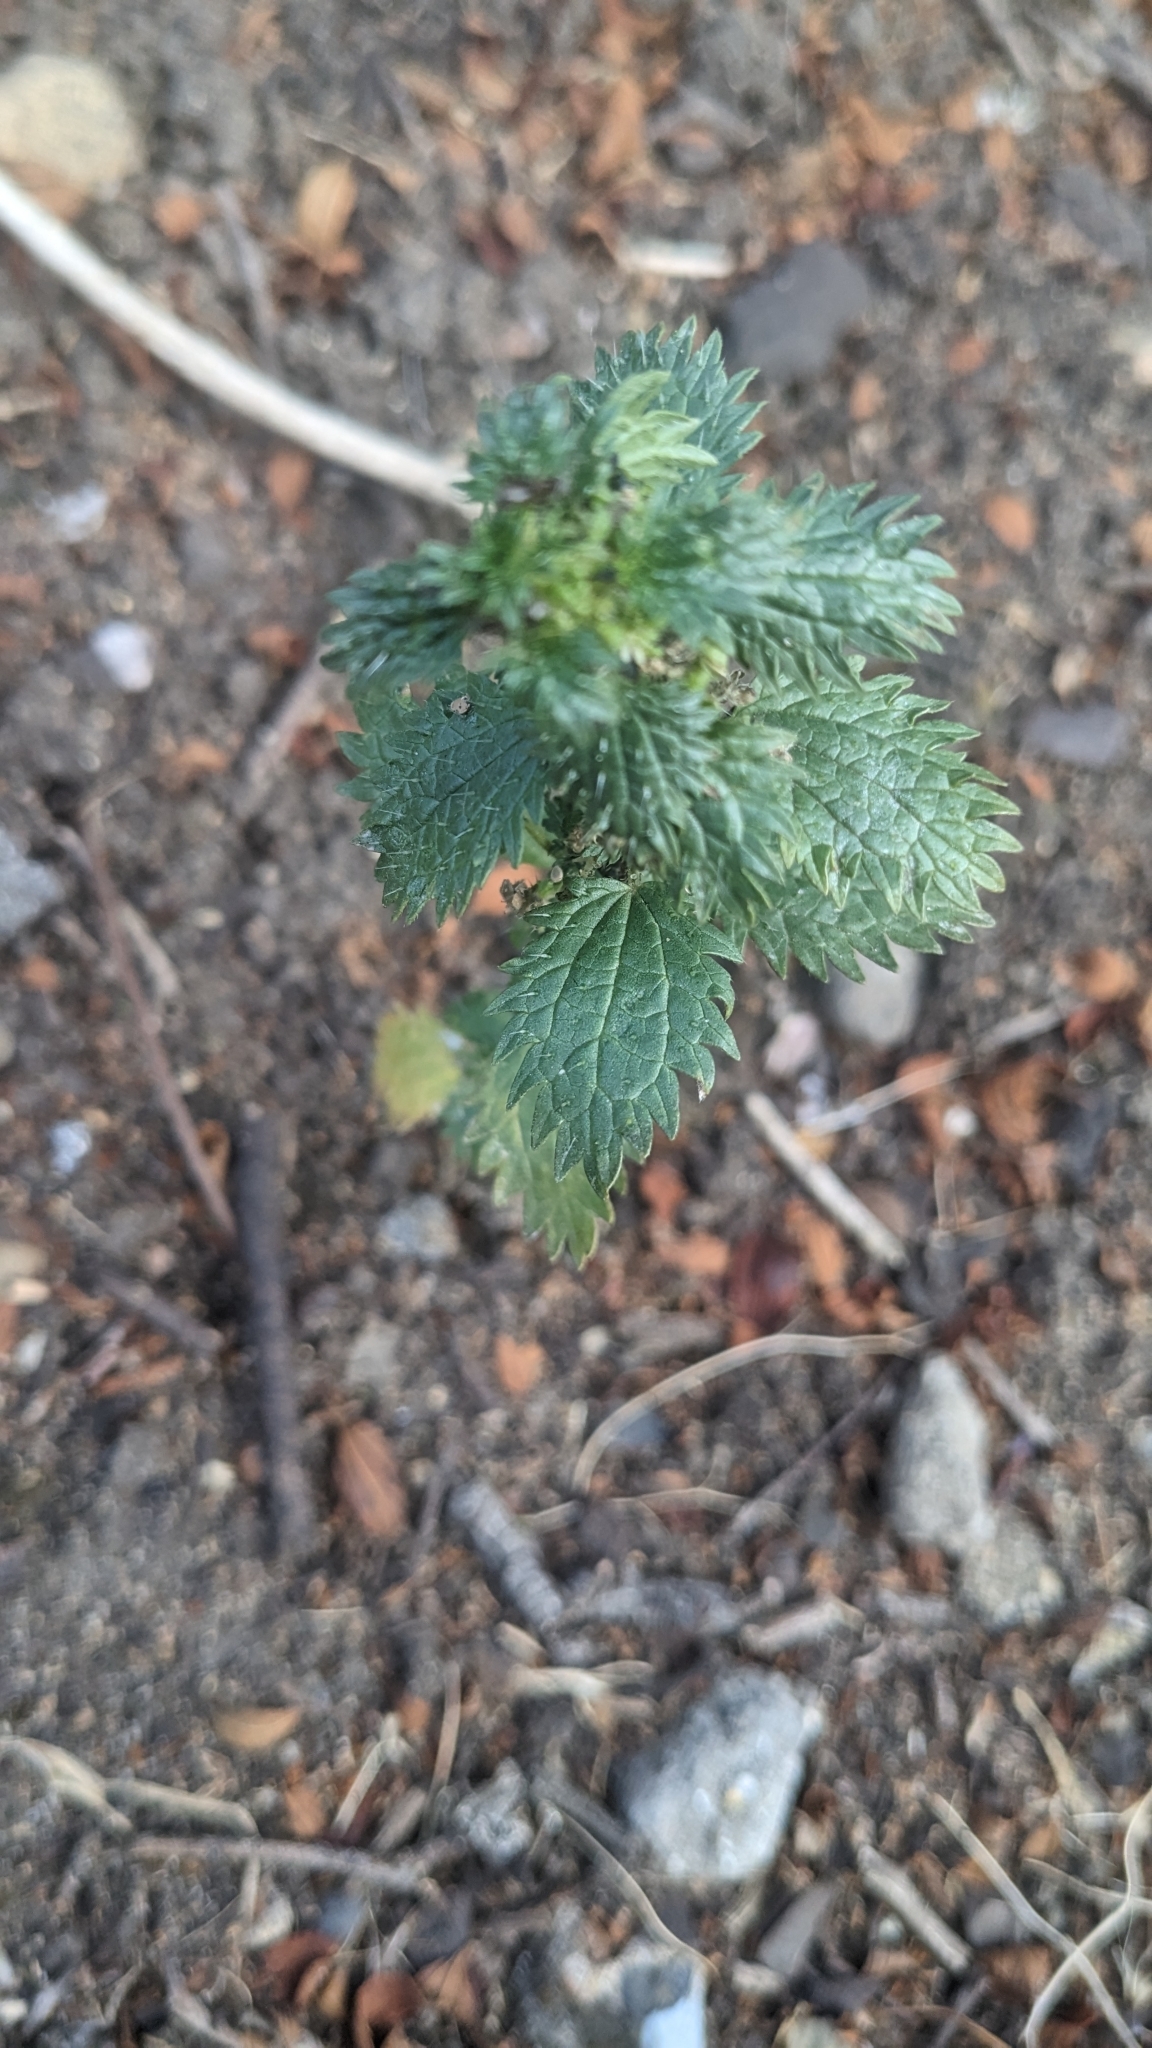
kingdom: Plantae
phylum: Tracheophyta
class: Magnoliopsida
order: Rosales
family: Urticaceae
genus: Urtica
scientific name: Urtica urens
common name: Dwarf nettle
